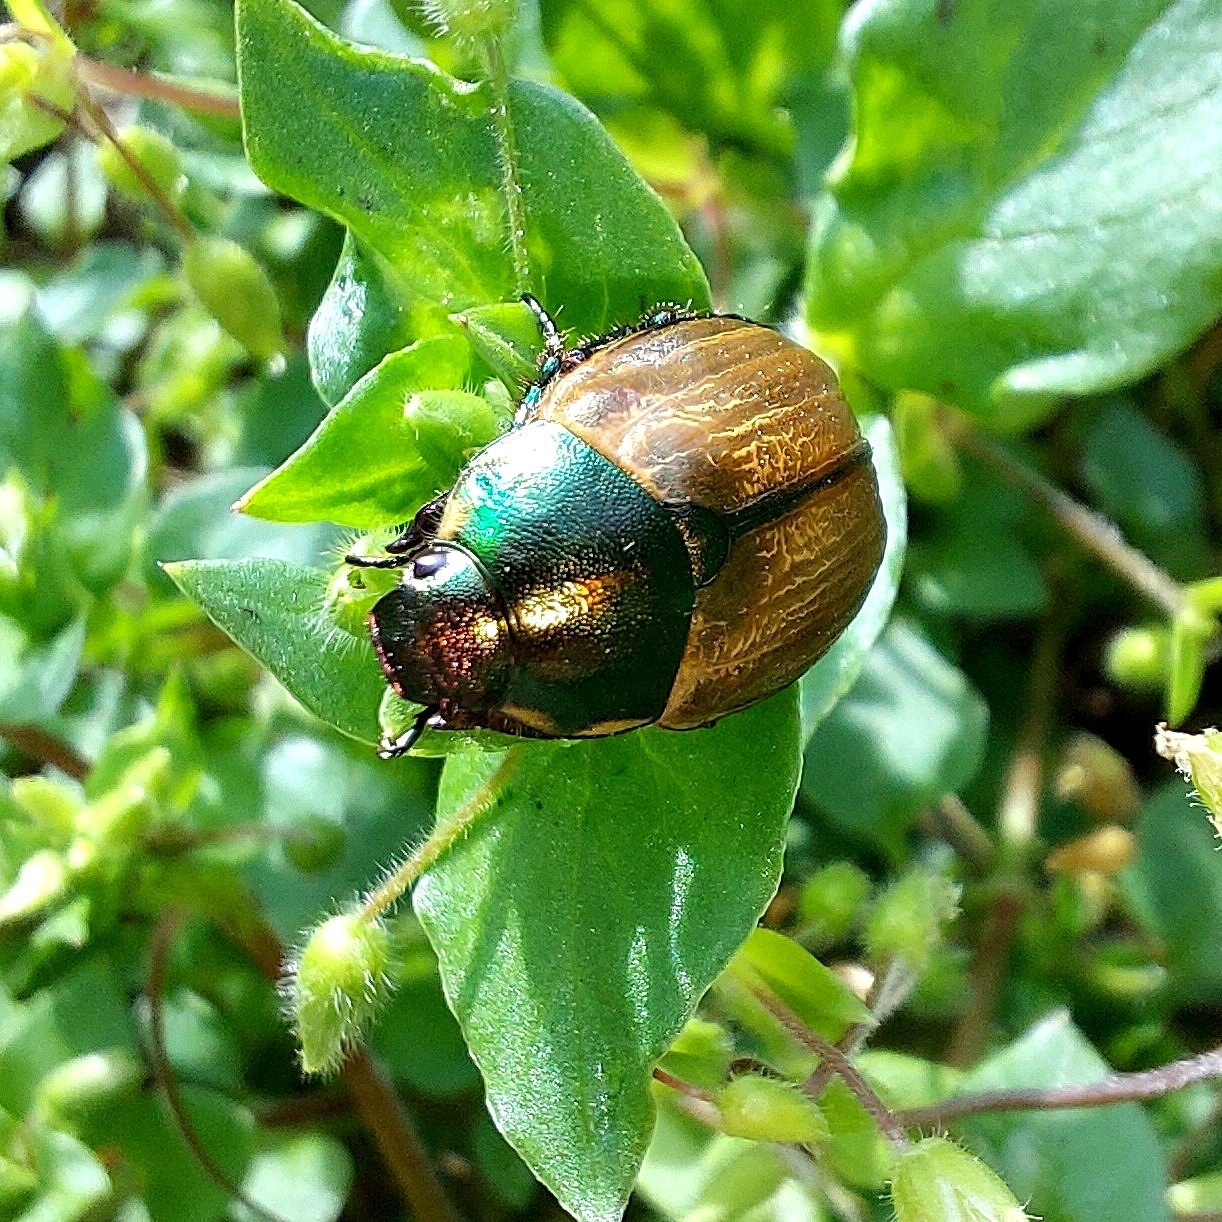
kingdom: Animalia
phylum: Arthropoda
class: Insecta
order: Coleoptera
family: Scarabaeidae
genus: Anomala
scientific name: Anomala dubia
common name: Dune chafer
